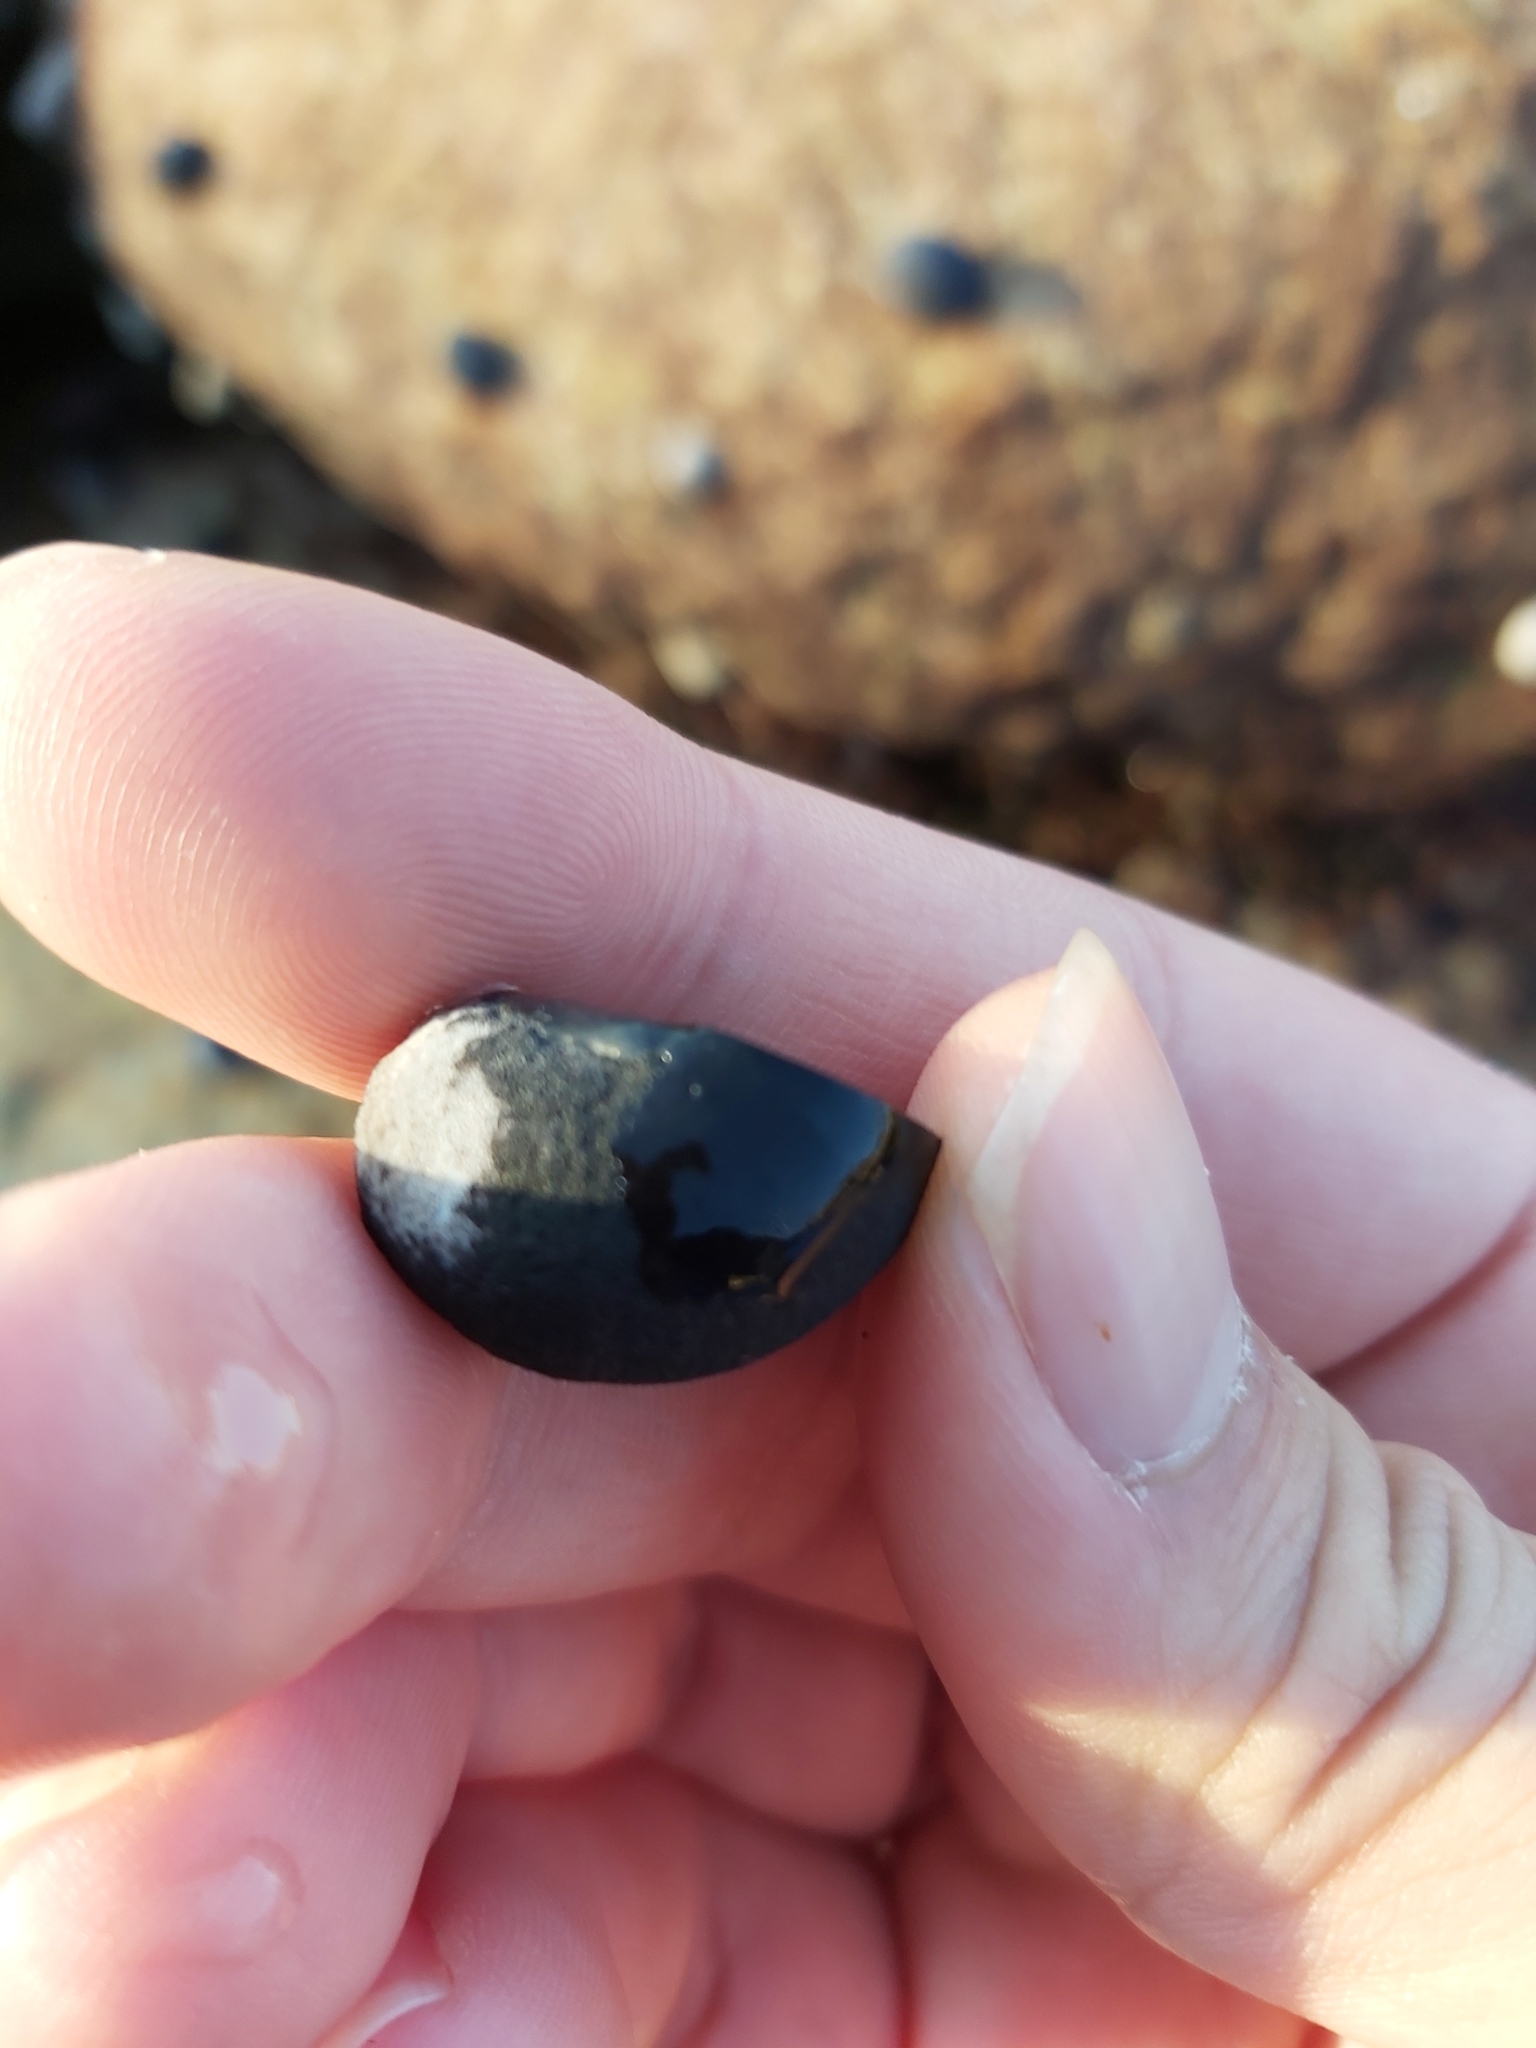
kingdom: Animalia
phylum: Mollusca
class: Gastropoda
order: Cycloneritida
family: Neritidae
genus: Nerita
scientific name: Nerita melanotragus
